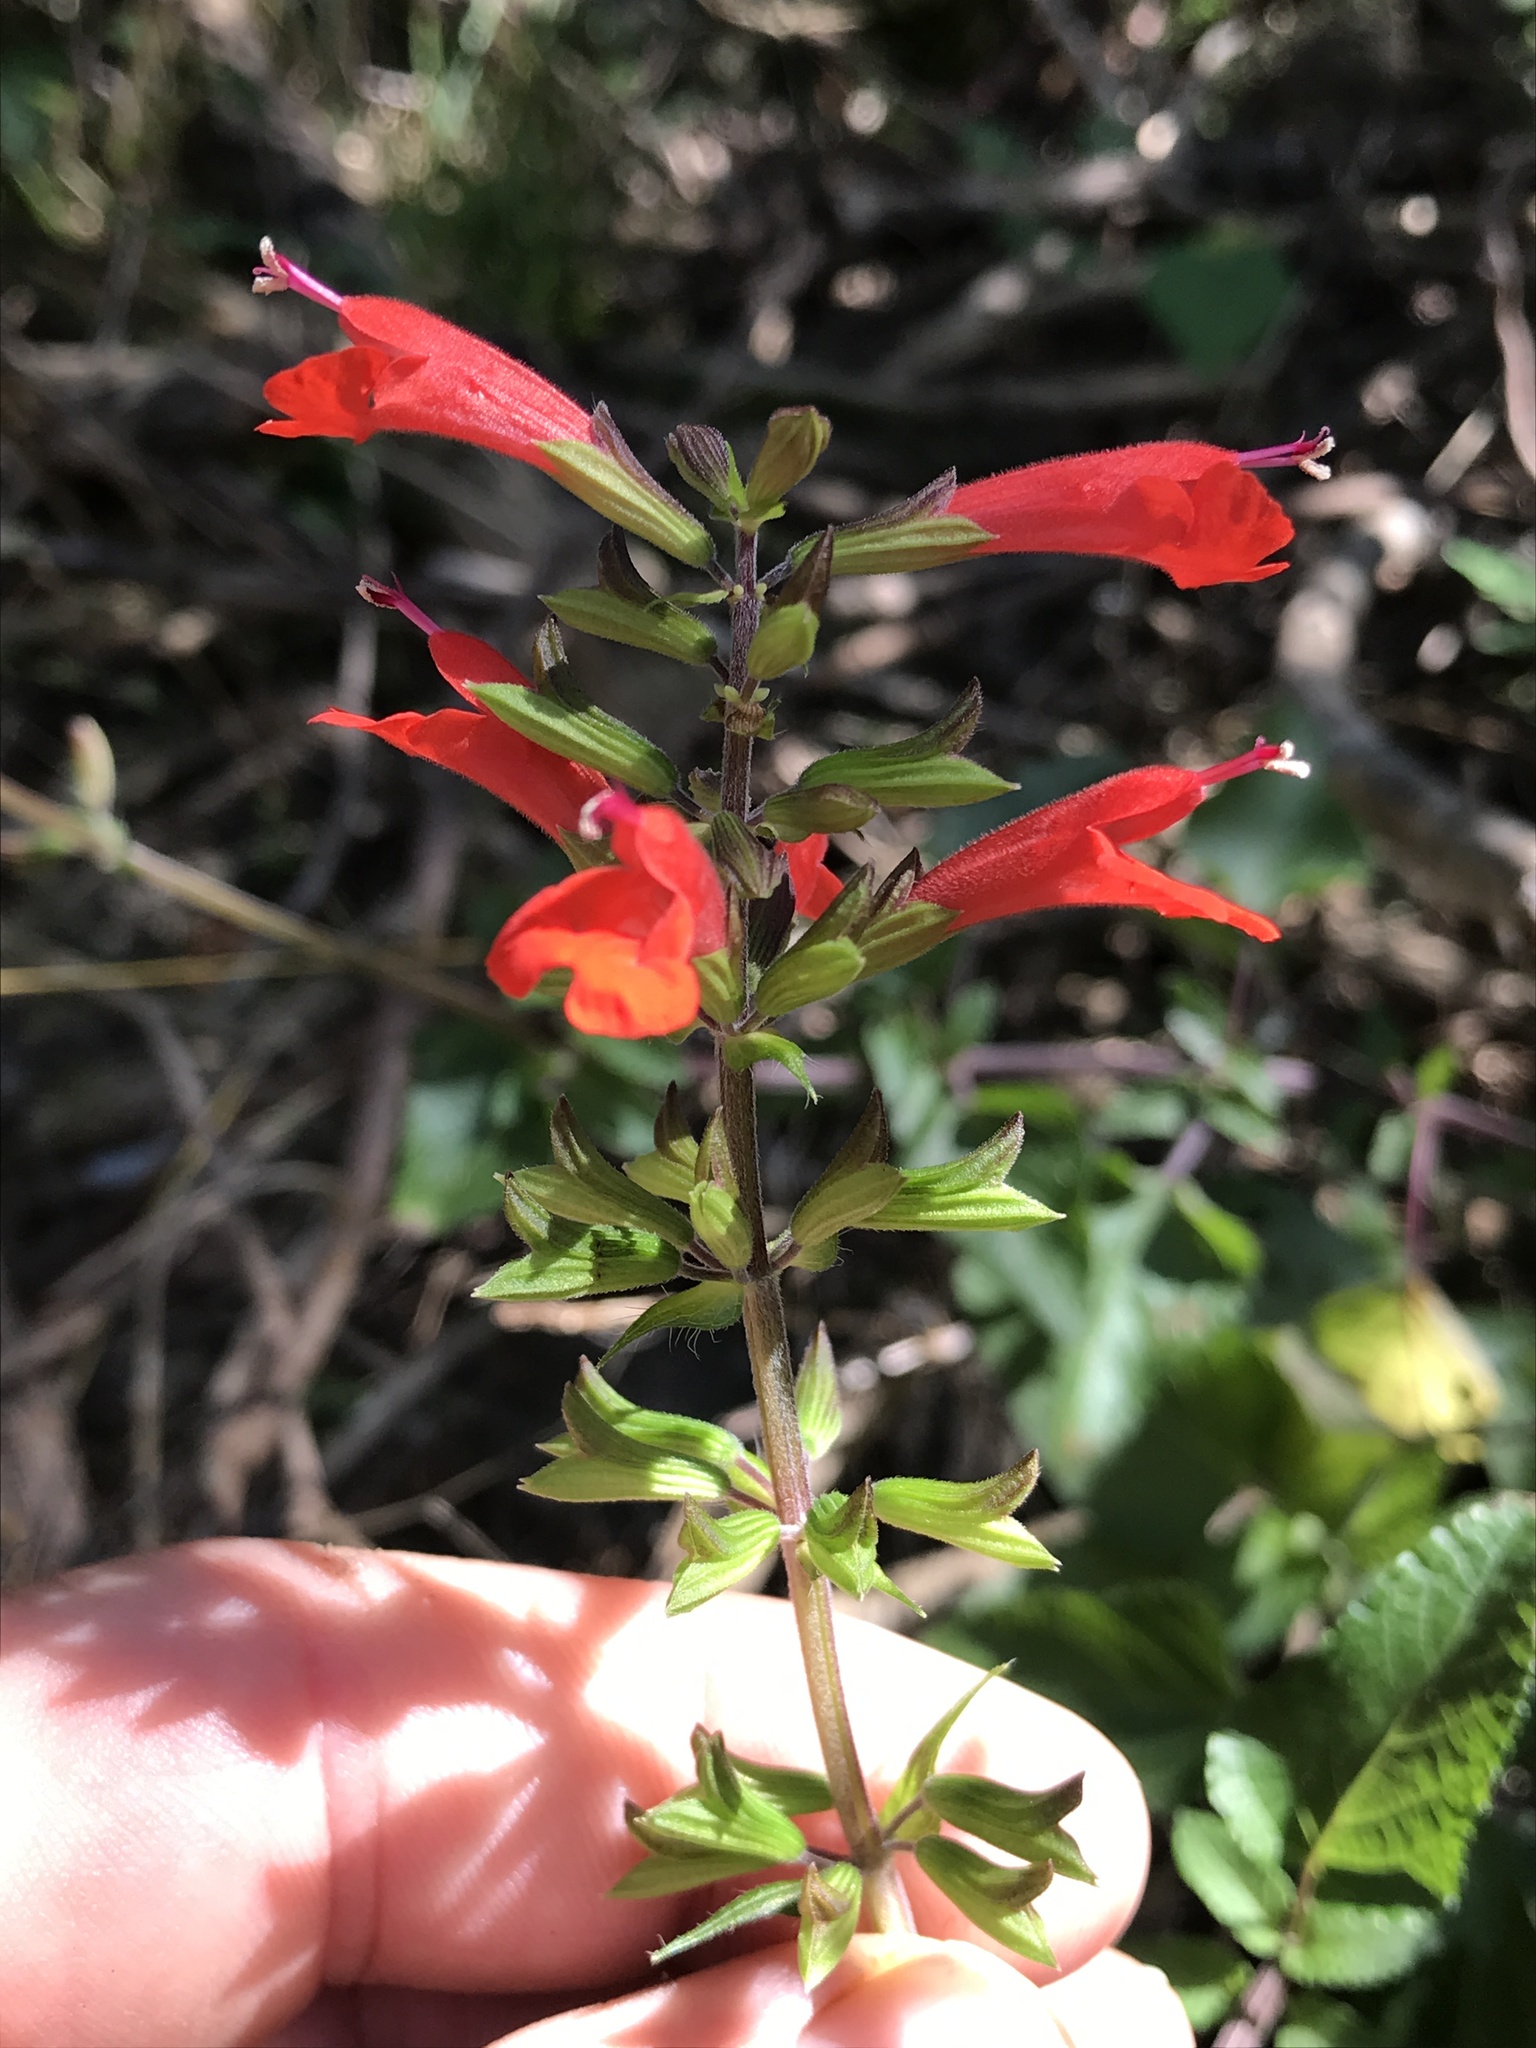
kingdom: Plantae
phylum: Tracheophyta
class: Magnoliopsida
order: Lamiales
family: Lamiaceae
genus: Salvia
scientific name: Salvia coccinea
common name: Blood sage
